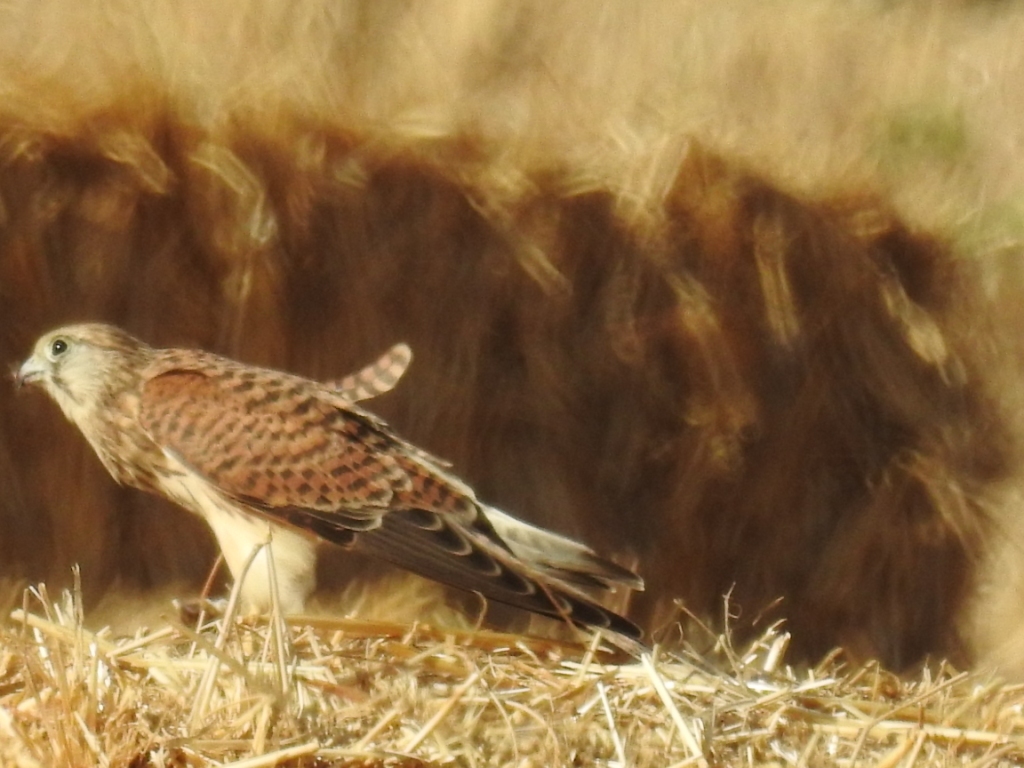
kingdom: Animalia
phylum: Chordata
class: Aves
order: Falconiformes
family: Falconidae
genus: Falco
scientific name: Falco tinnunculus
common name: Common kestrel
